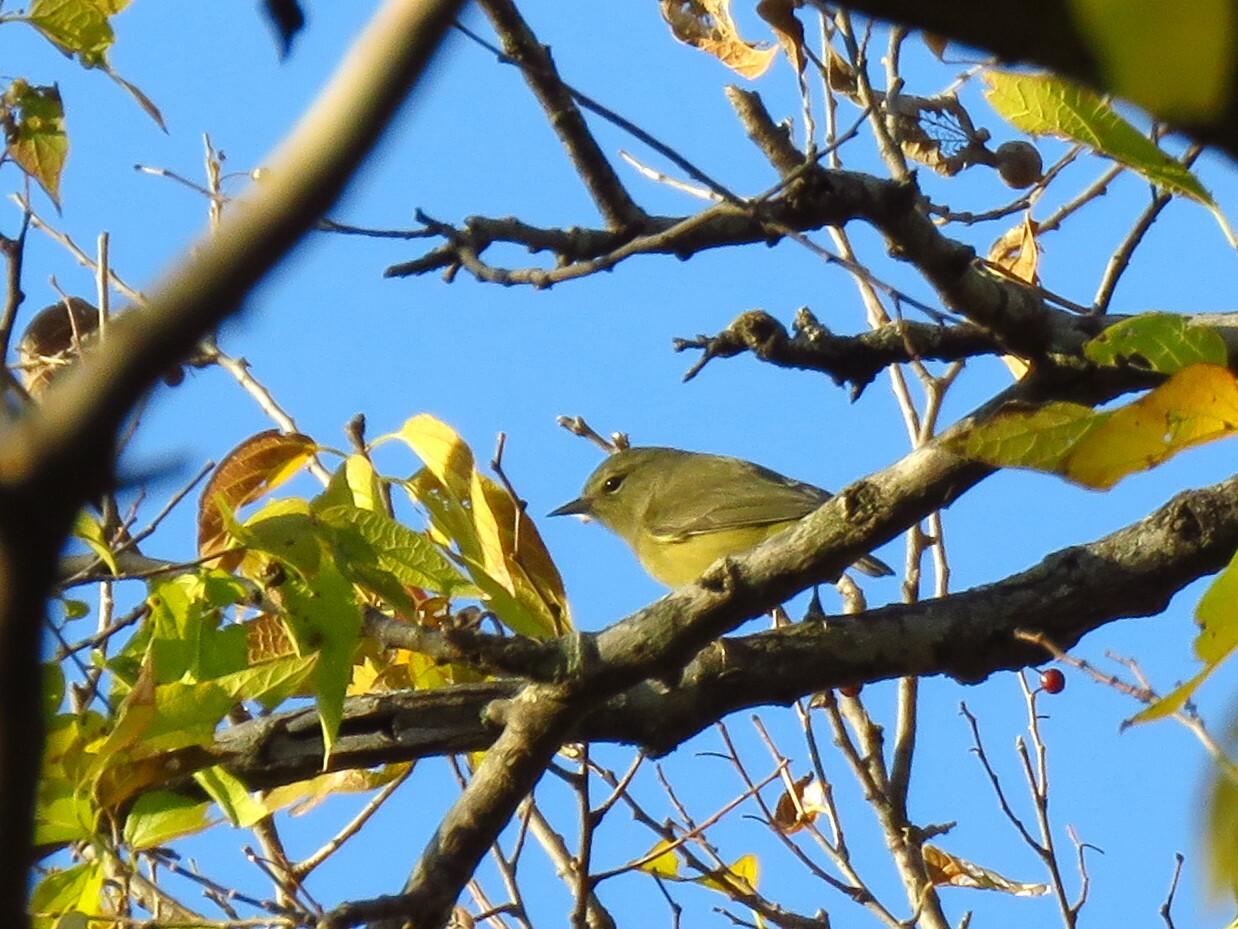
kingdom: Animalia
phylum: Chordata
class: Aves
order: Passeriformes
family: Parulidae
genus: Leiothlypis
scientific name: Leiothlypis celata
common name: Orange-crowned warbler
